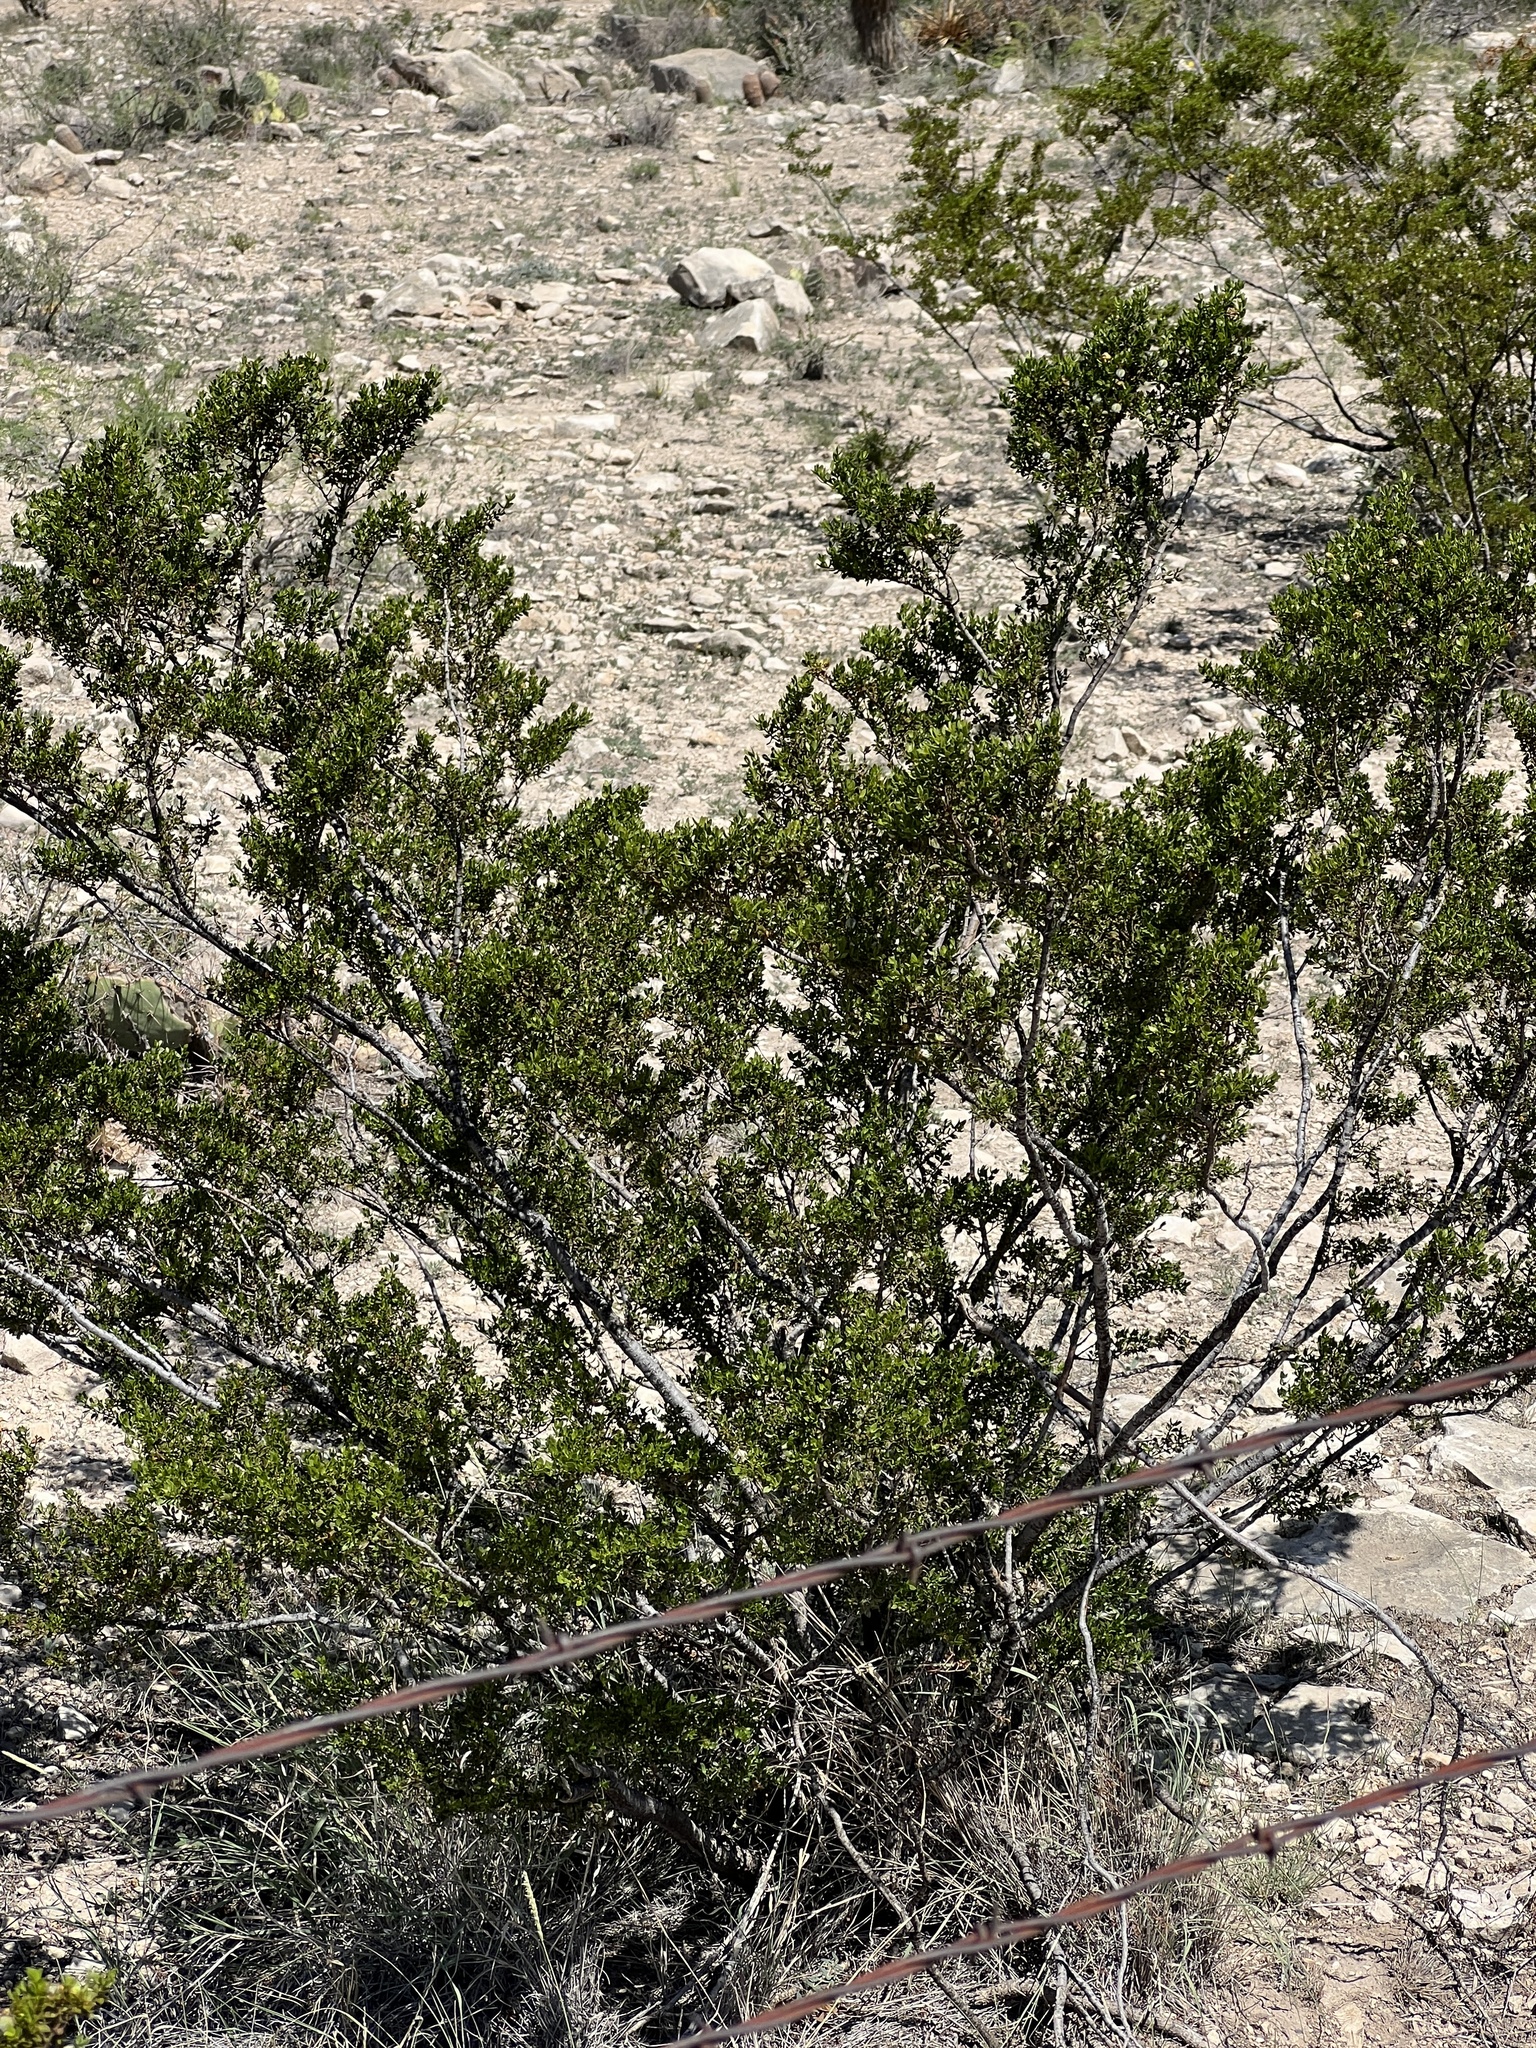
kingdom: Plantae
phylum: Tracheophyta
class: Magnoliopsida
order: Zygophyllales
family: Zygophyllaceae
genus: Larrea
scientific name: Larrea tridentata
